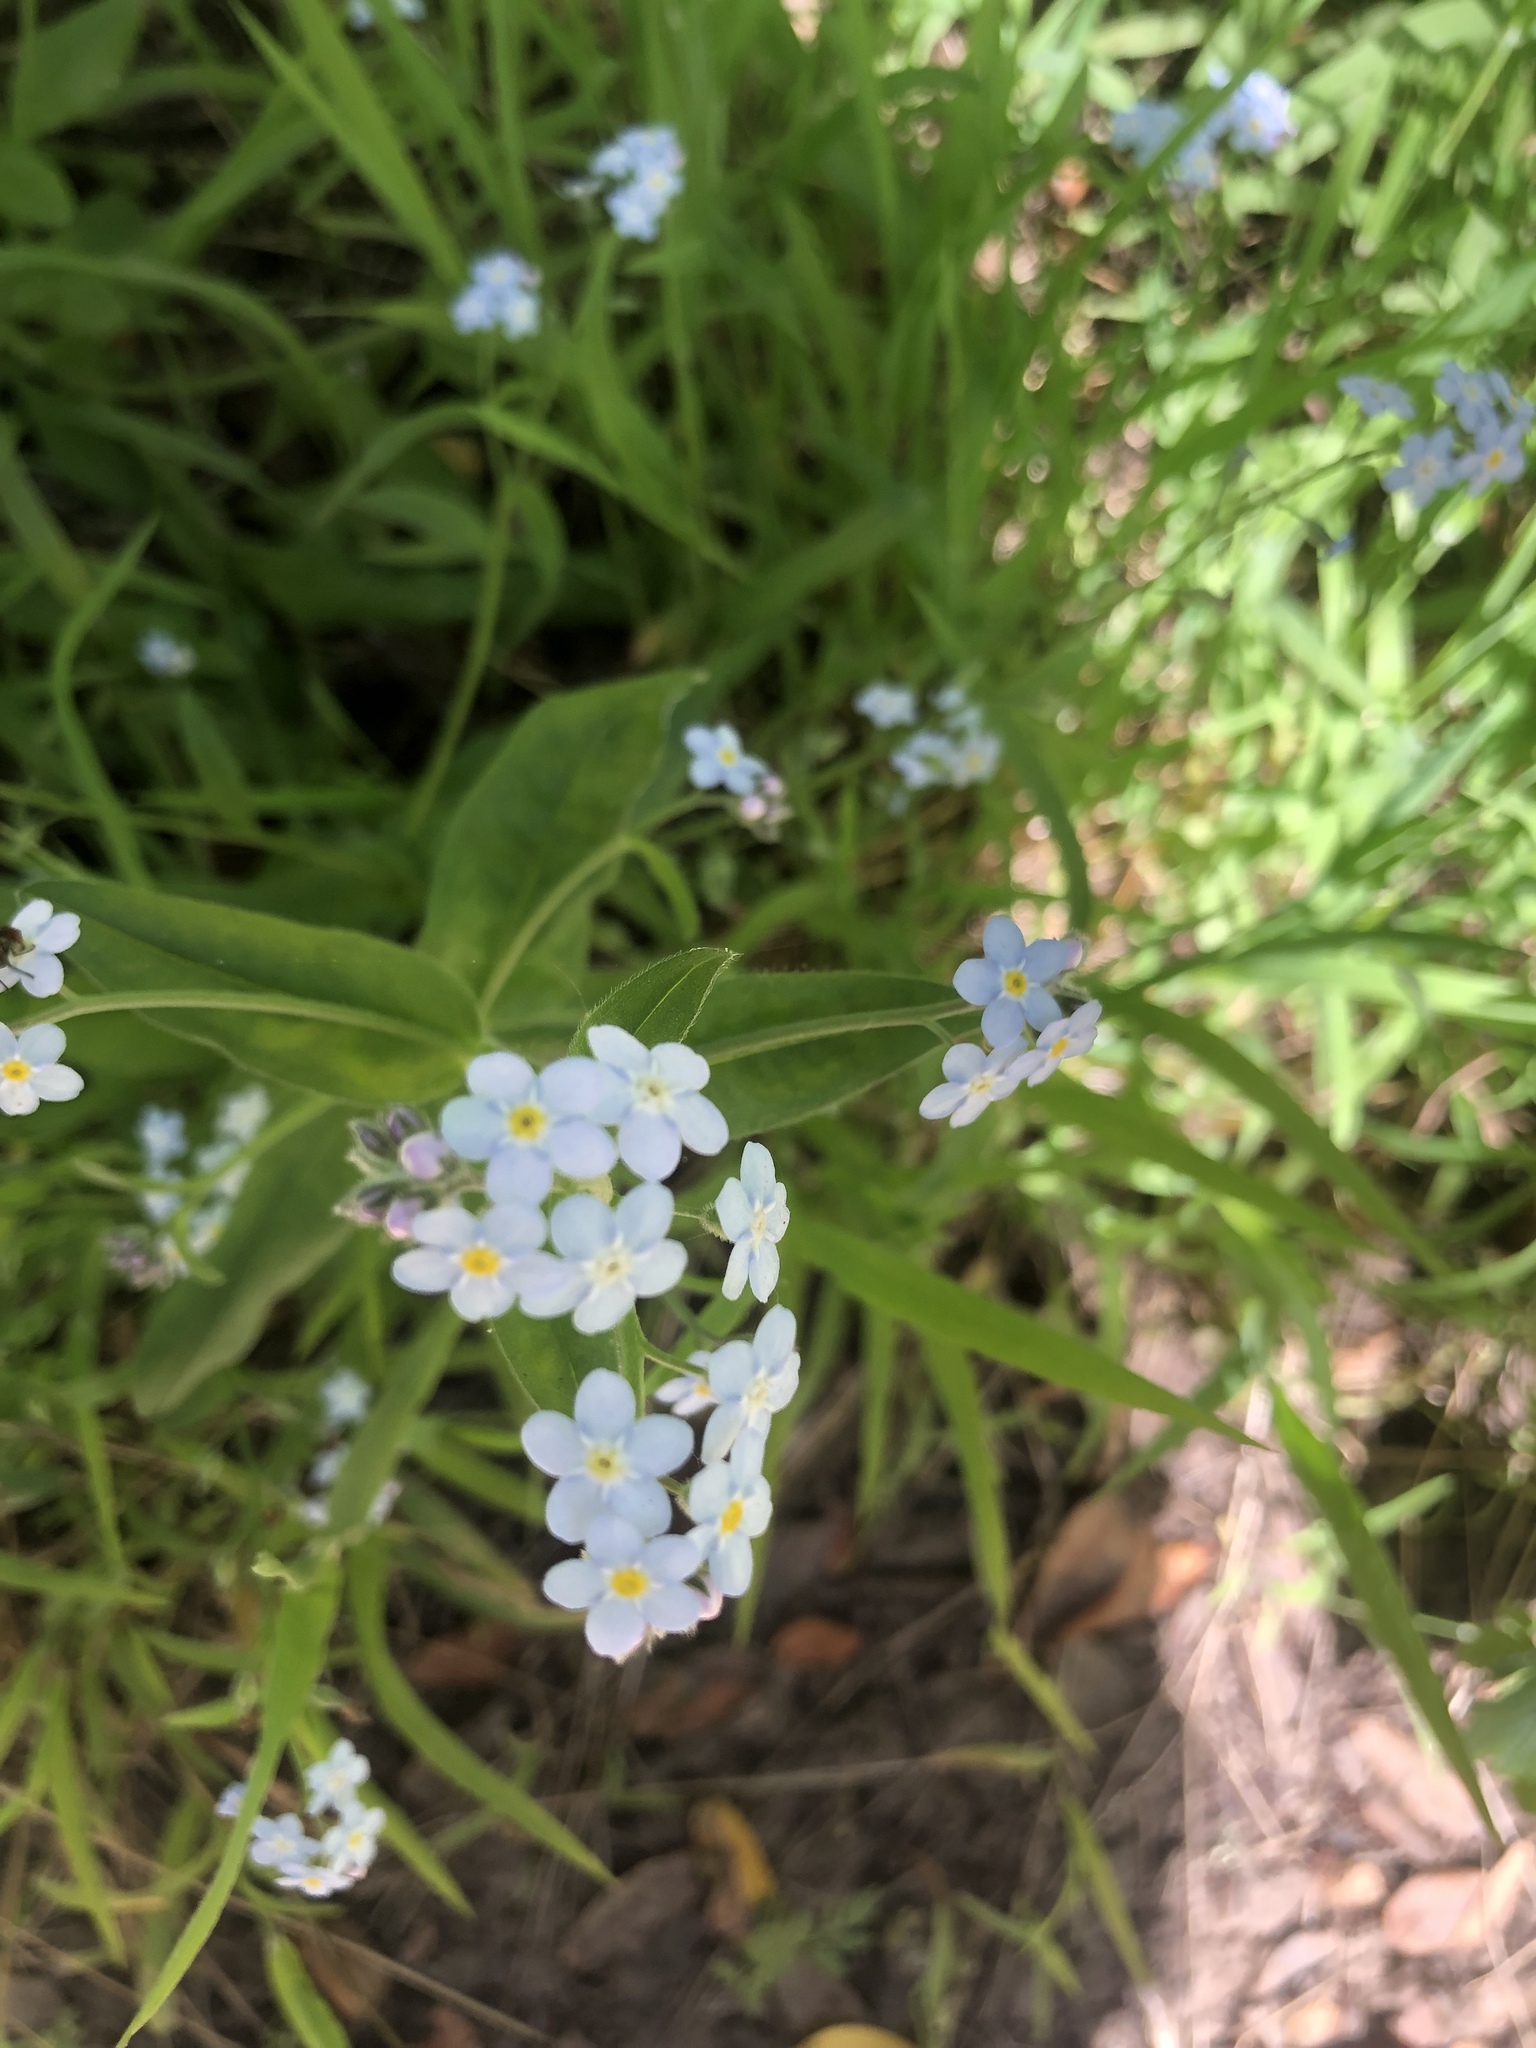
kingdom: Plantae
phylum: Tracheophyta
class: Magnoliopsida
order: Boraginales
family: Boraginaceae
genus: Myosotis
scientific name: Myosotis latifolia
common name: Broadleaf forget-me-not
